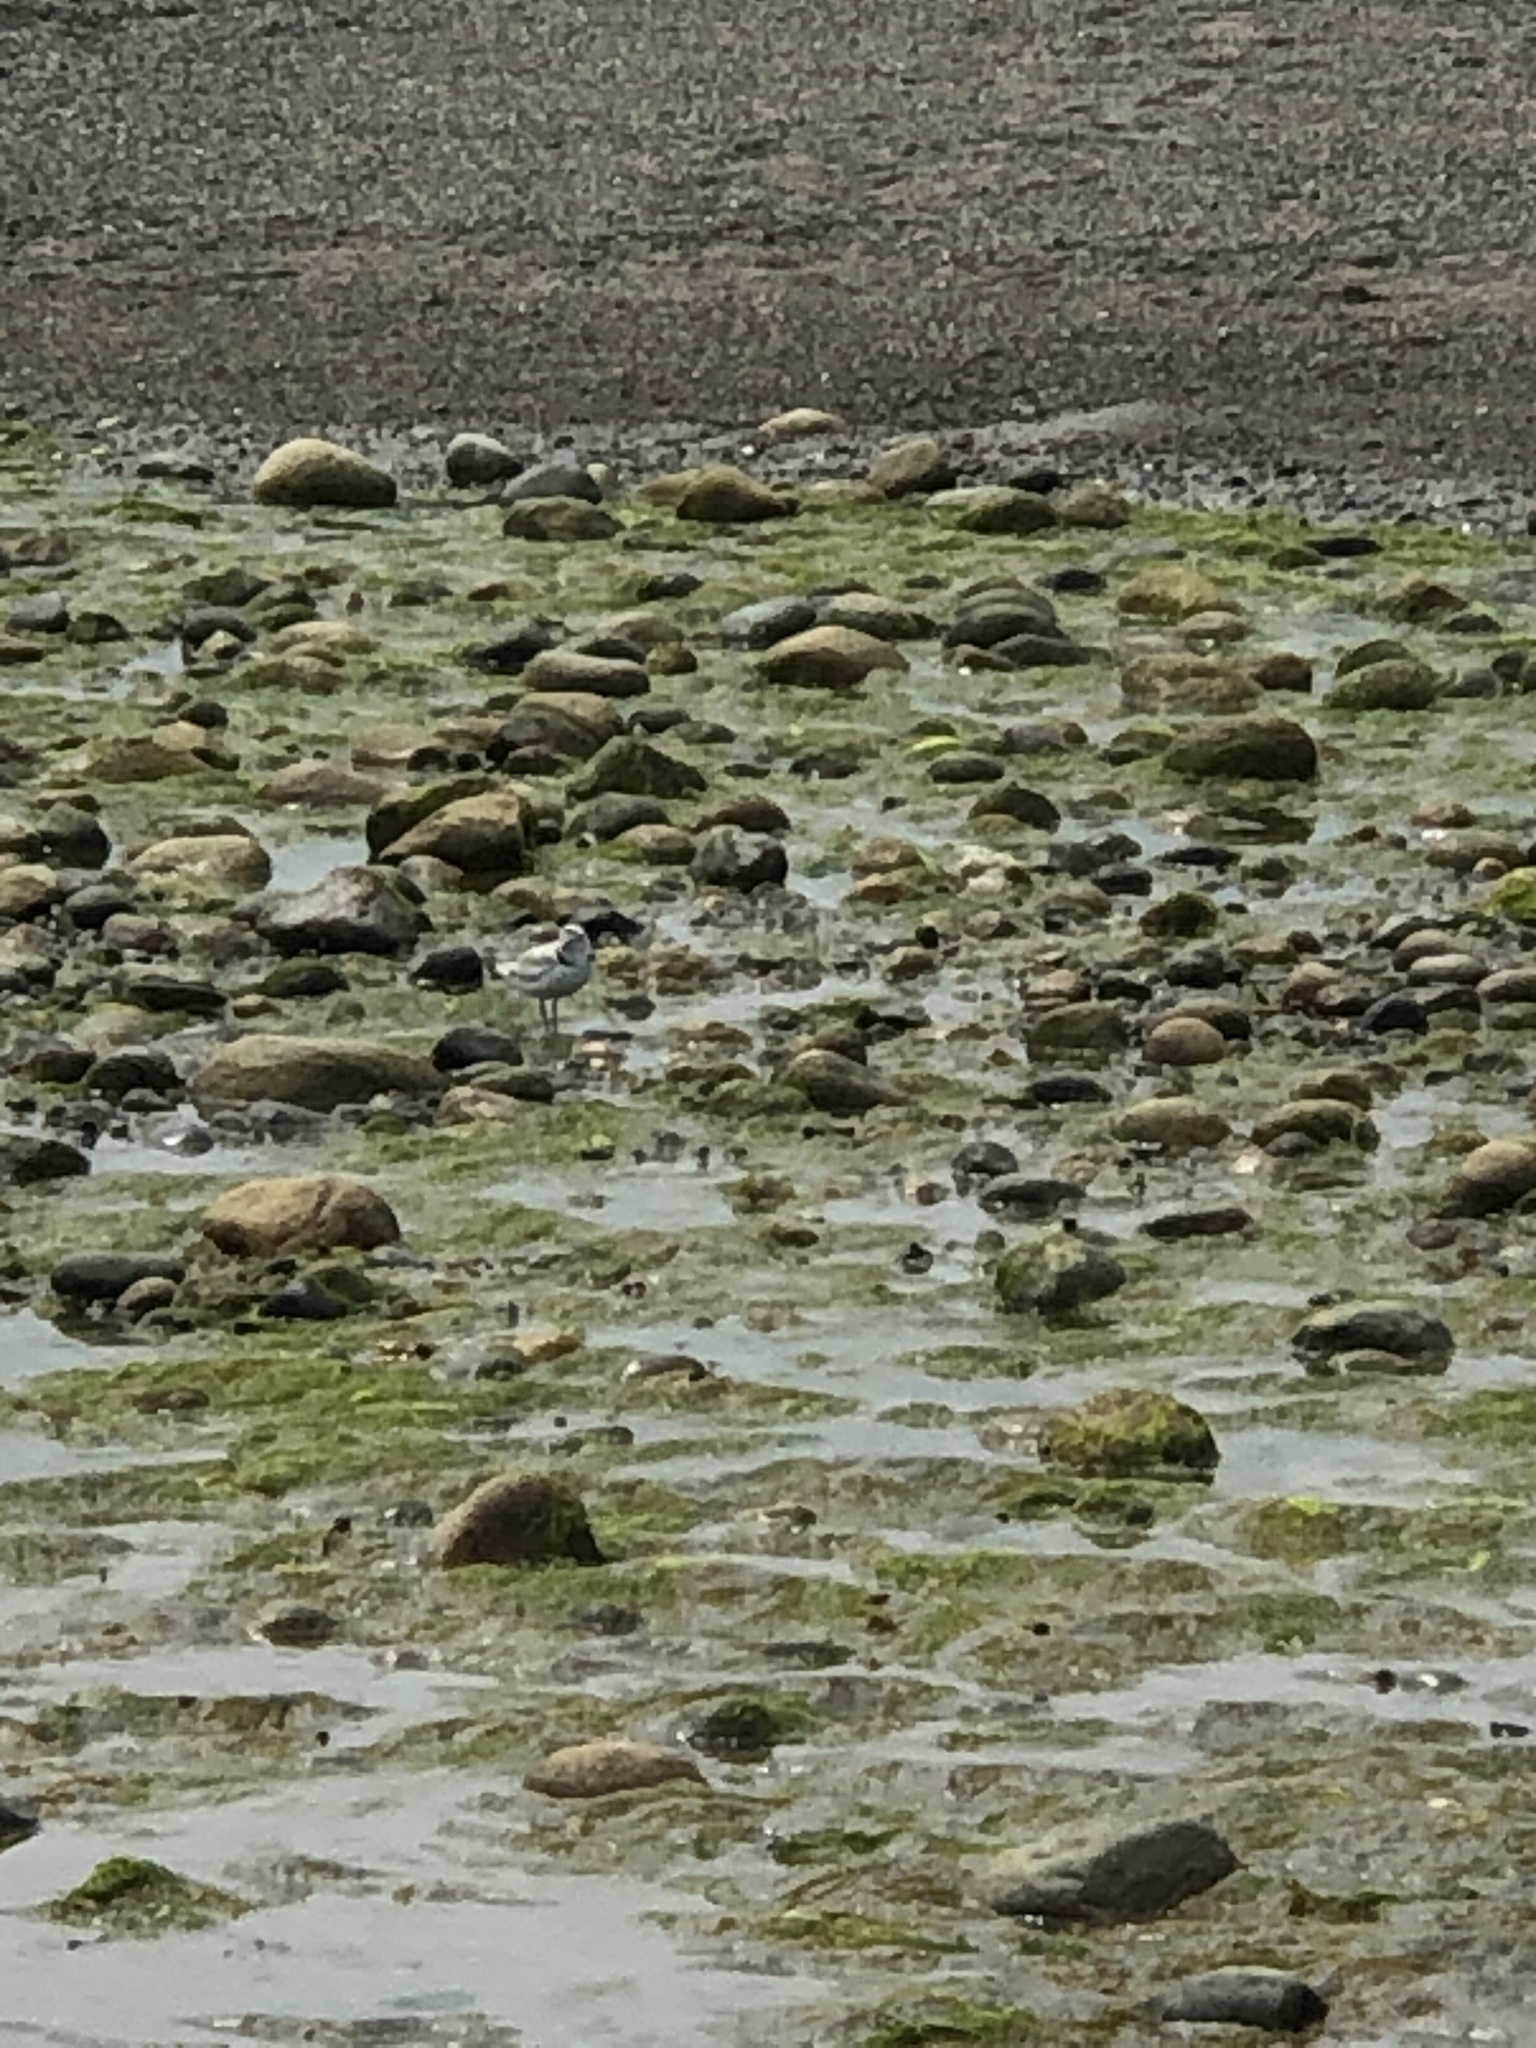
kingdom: Animalia
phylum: Chordata
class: Aves
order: Charadriiformes
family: Charadriidae
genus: Charadrius
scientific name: Charadrius melodus
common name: Piping plover
